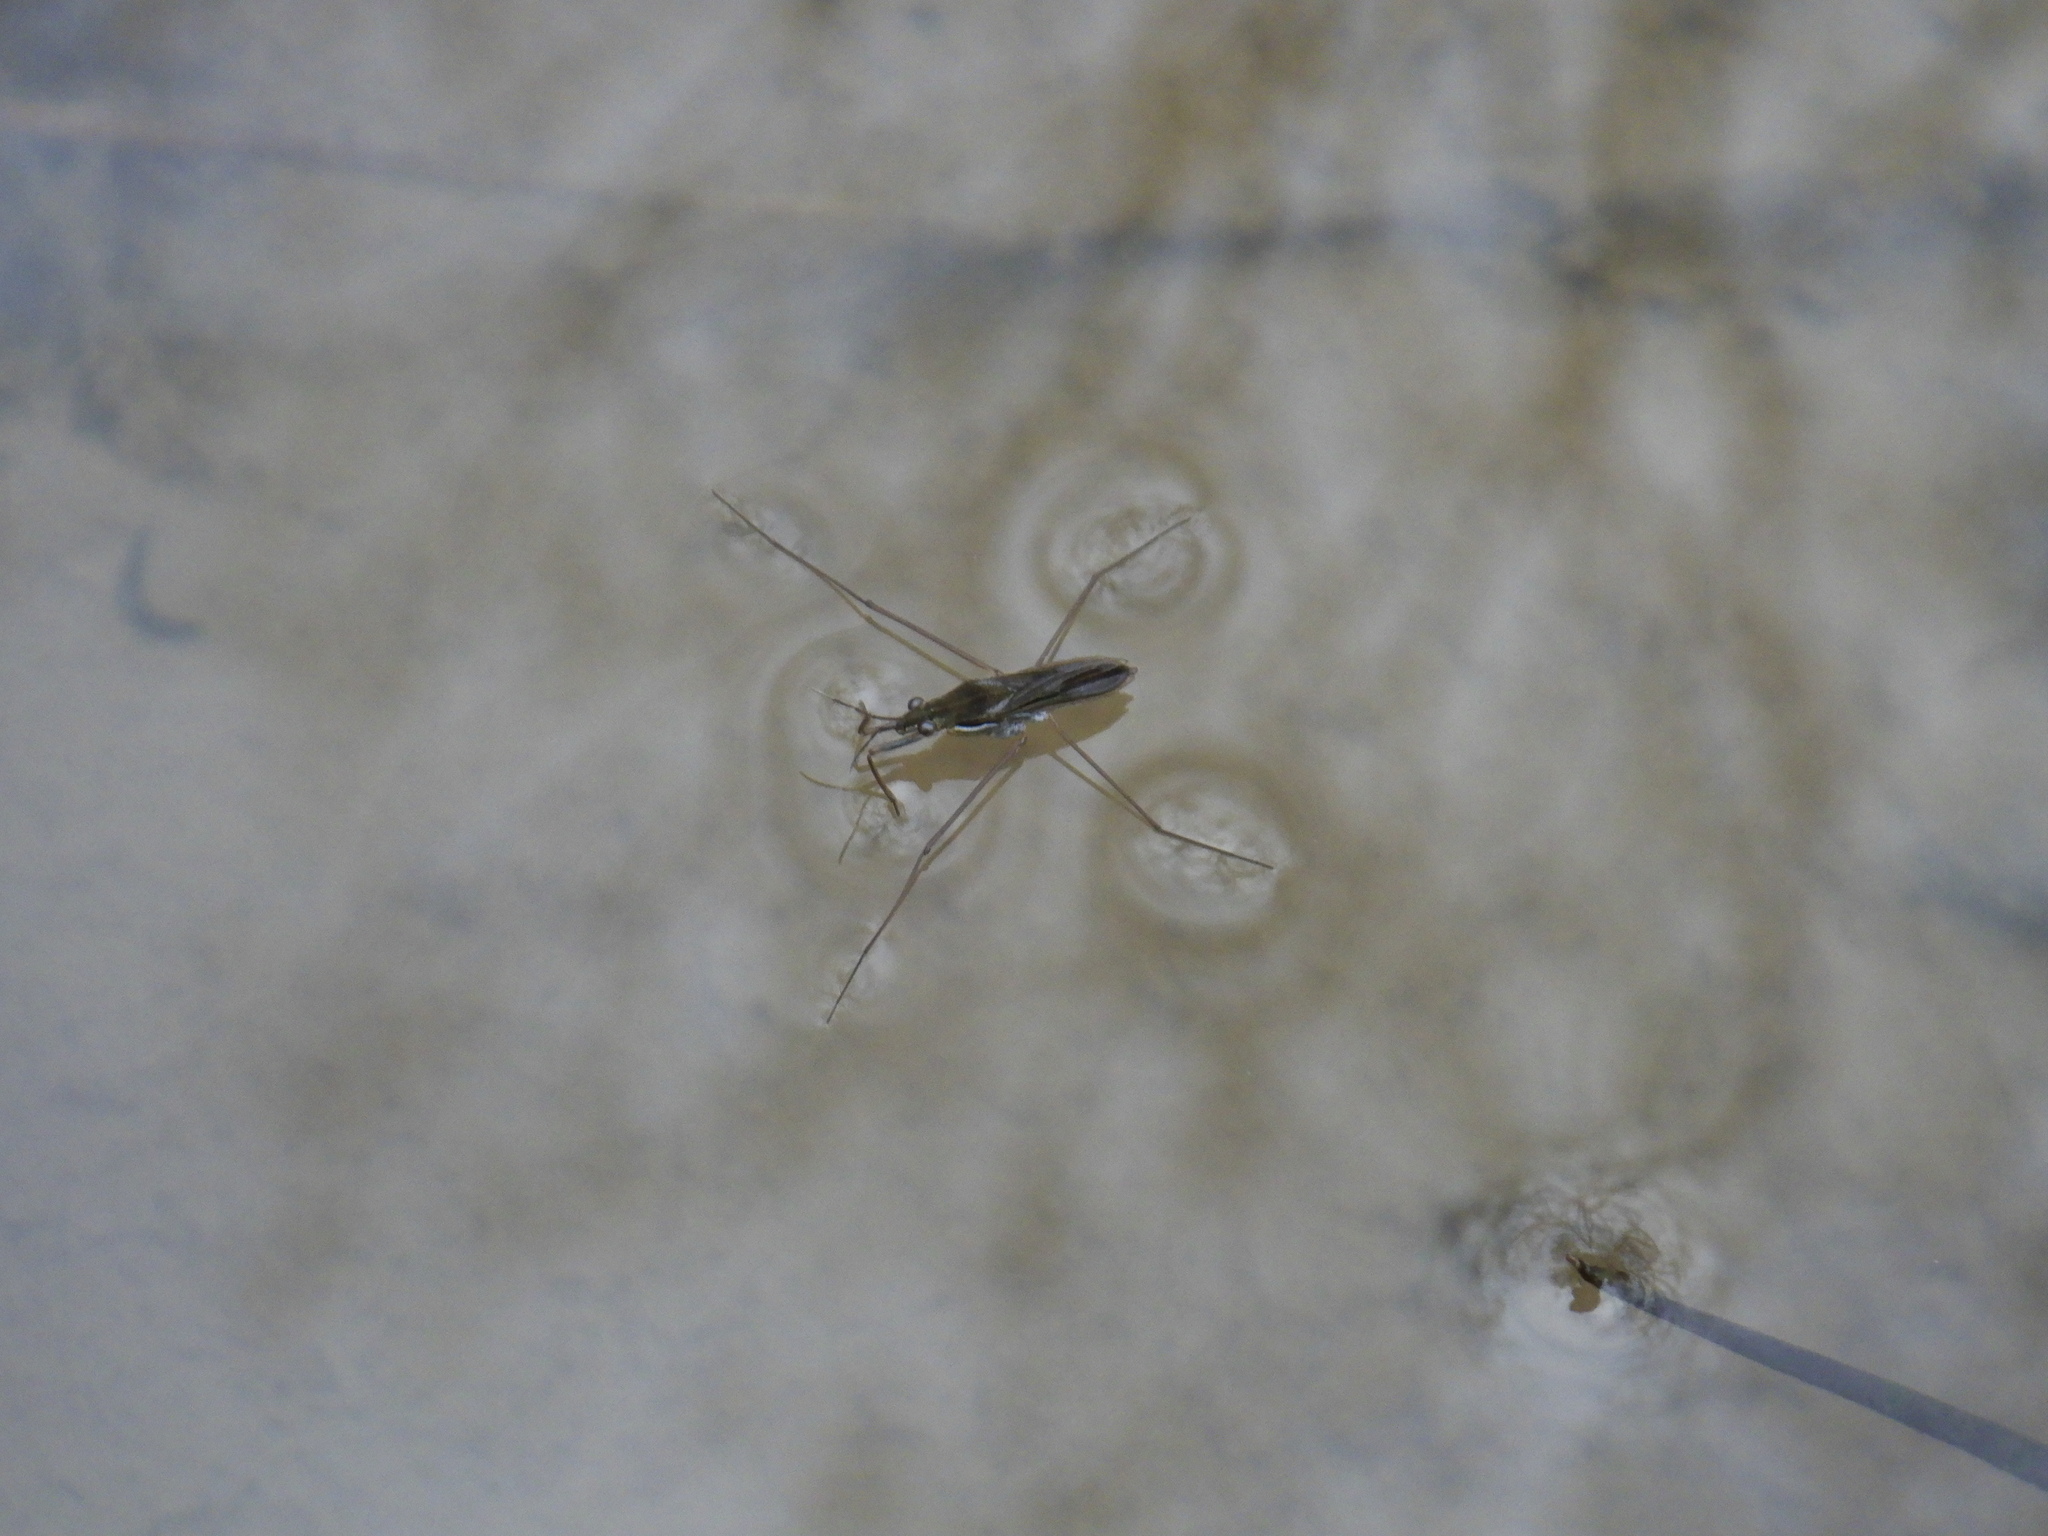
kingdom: Animalia
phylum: Arthropoda
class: Insecta
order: Hemiptera
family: Gerridae
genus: Gerris
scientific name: Gerris
